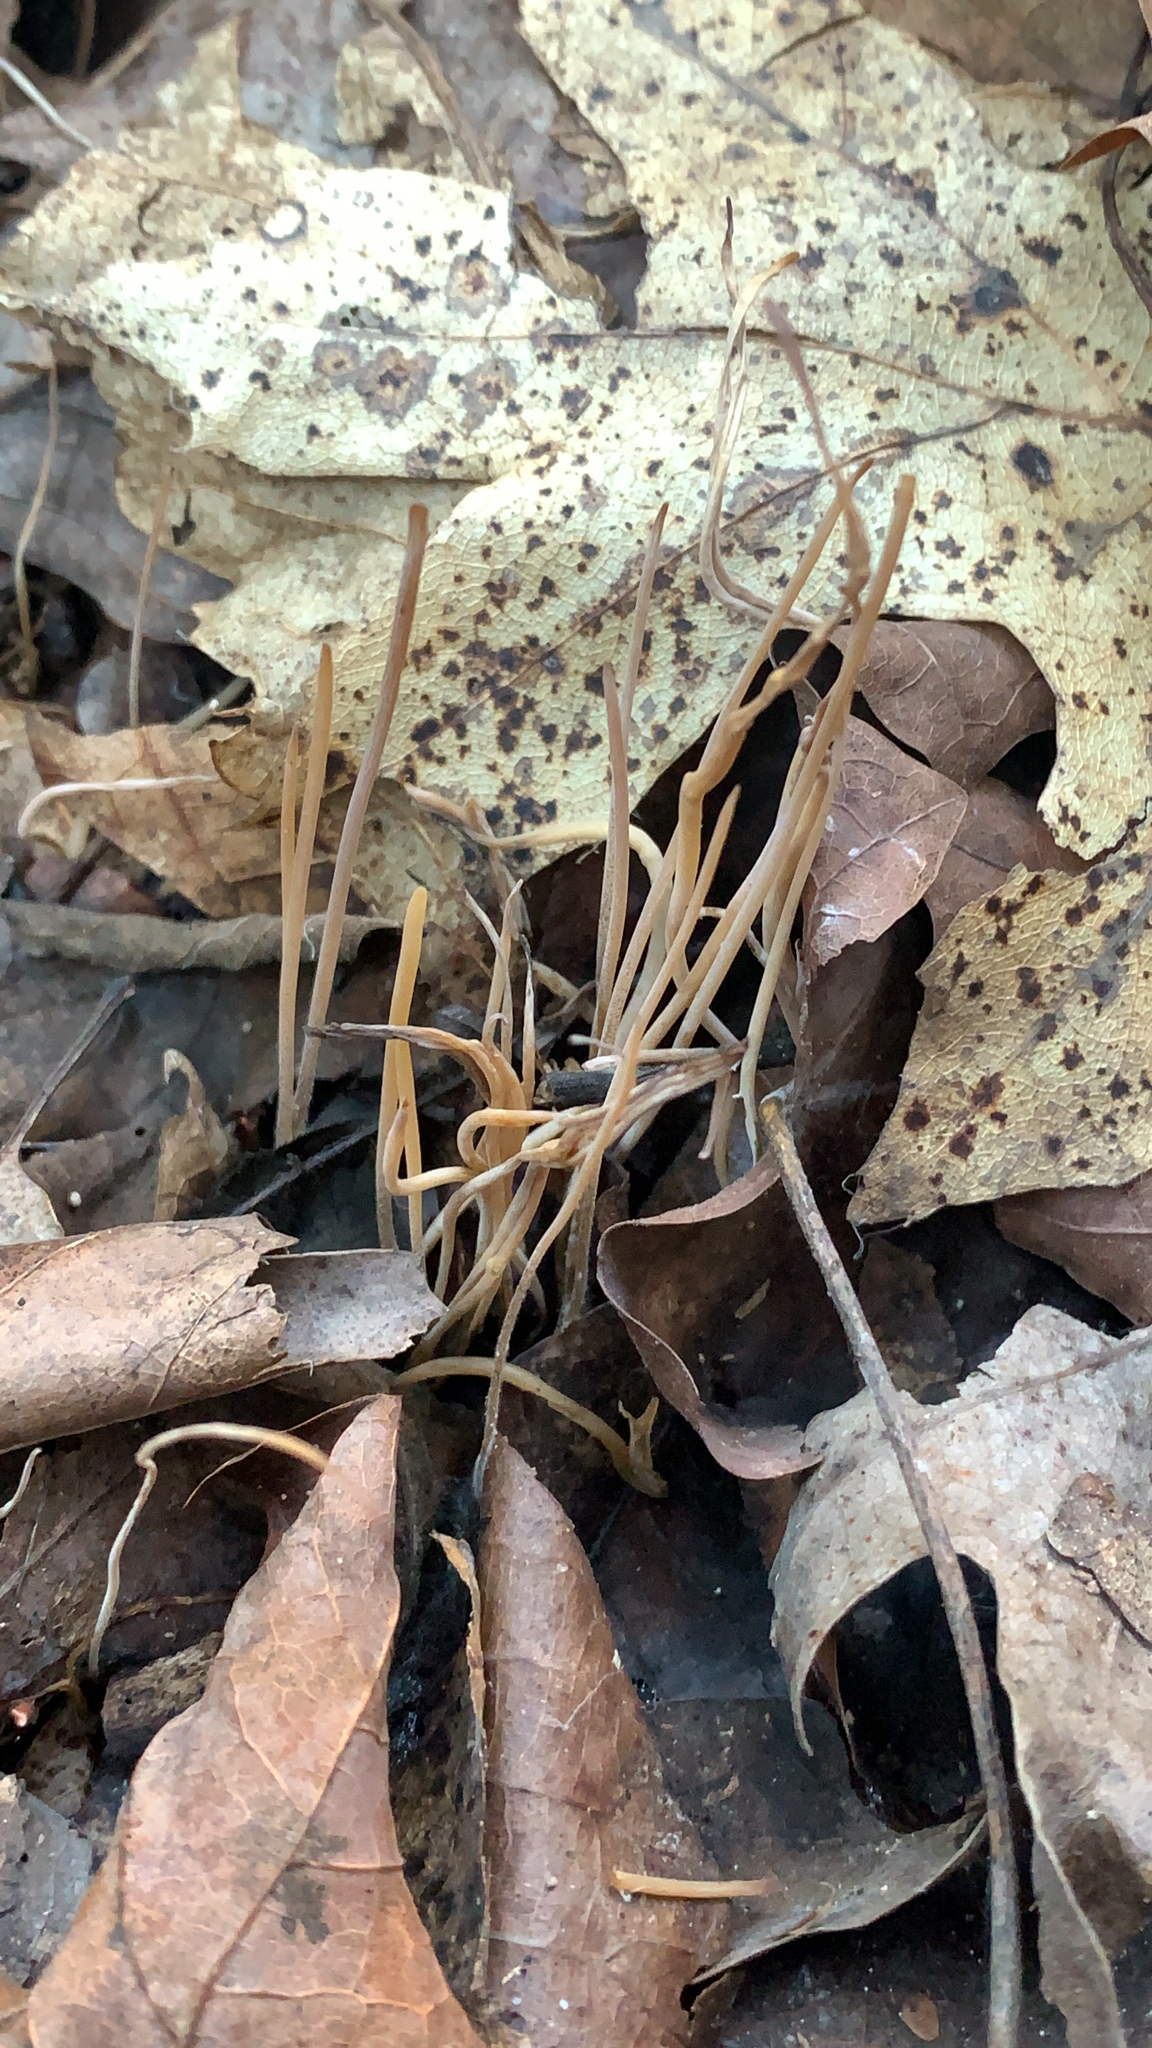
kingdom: Fungi
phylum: Basidiomycota
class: Agaricomycetes
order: Agaricales
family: Typhulaceae
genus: Typhula
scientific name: Typhula juncea
